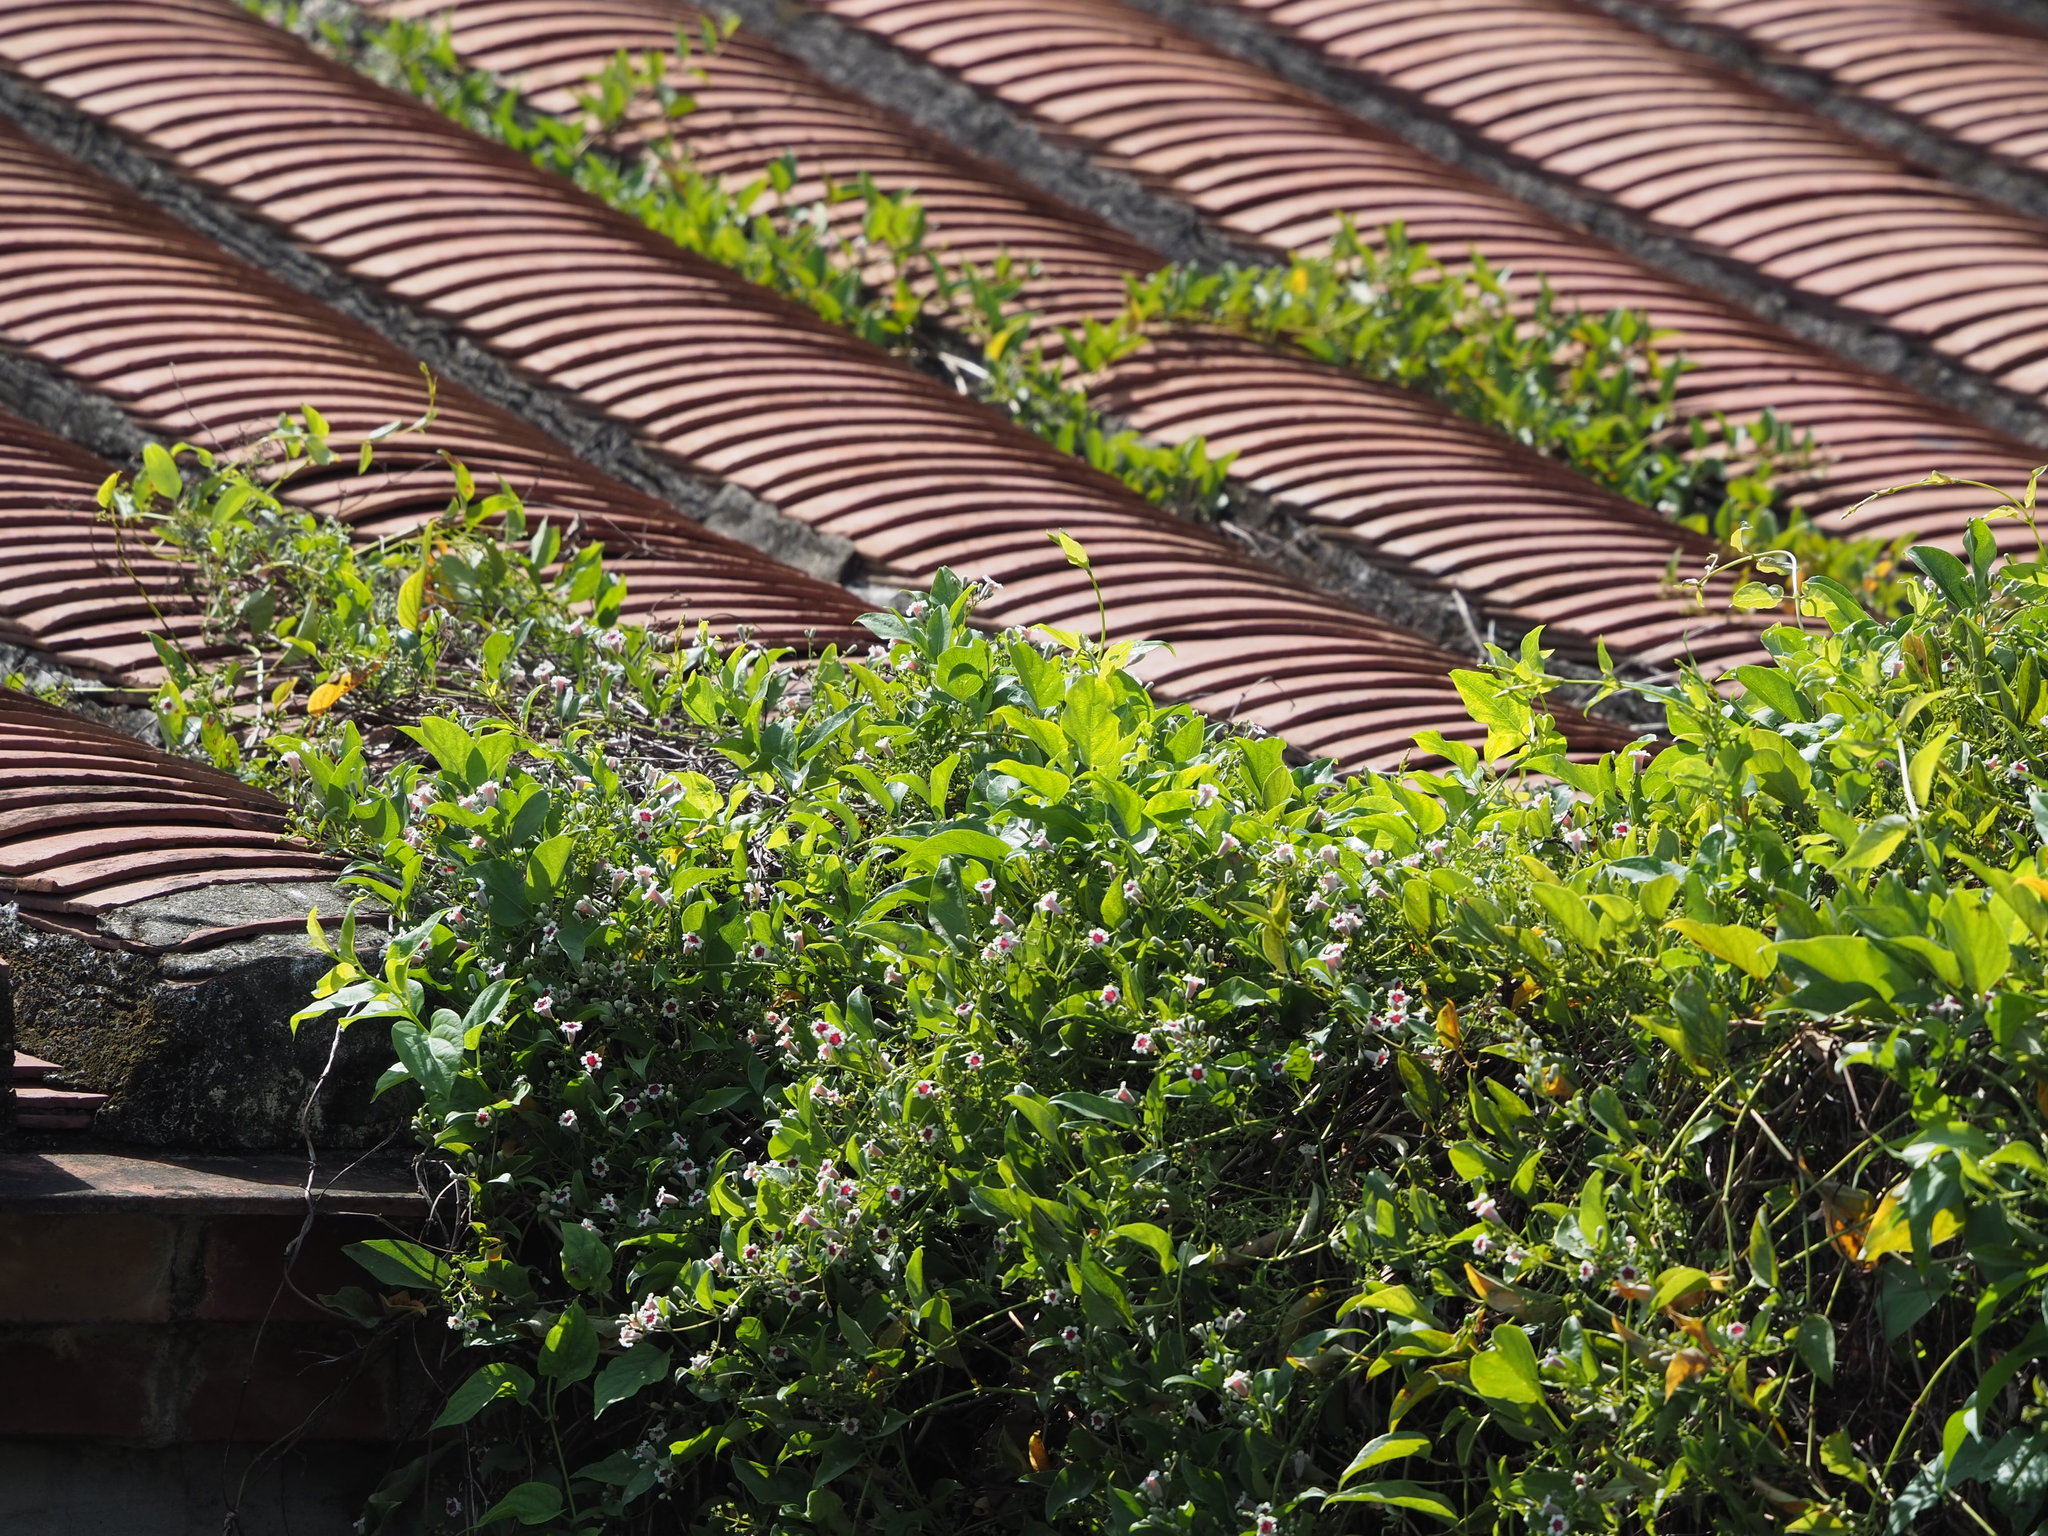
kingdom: Plantae
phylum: Tracheophyta
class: Magnoliopsida
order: Gentianales
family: Rubiaceae
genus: Paederia
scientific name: Paederia foetida
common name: Stinkvine
